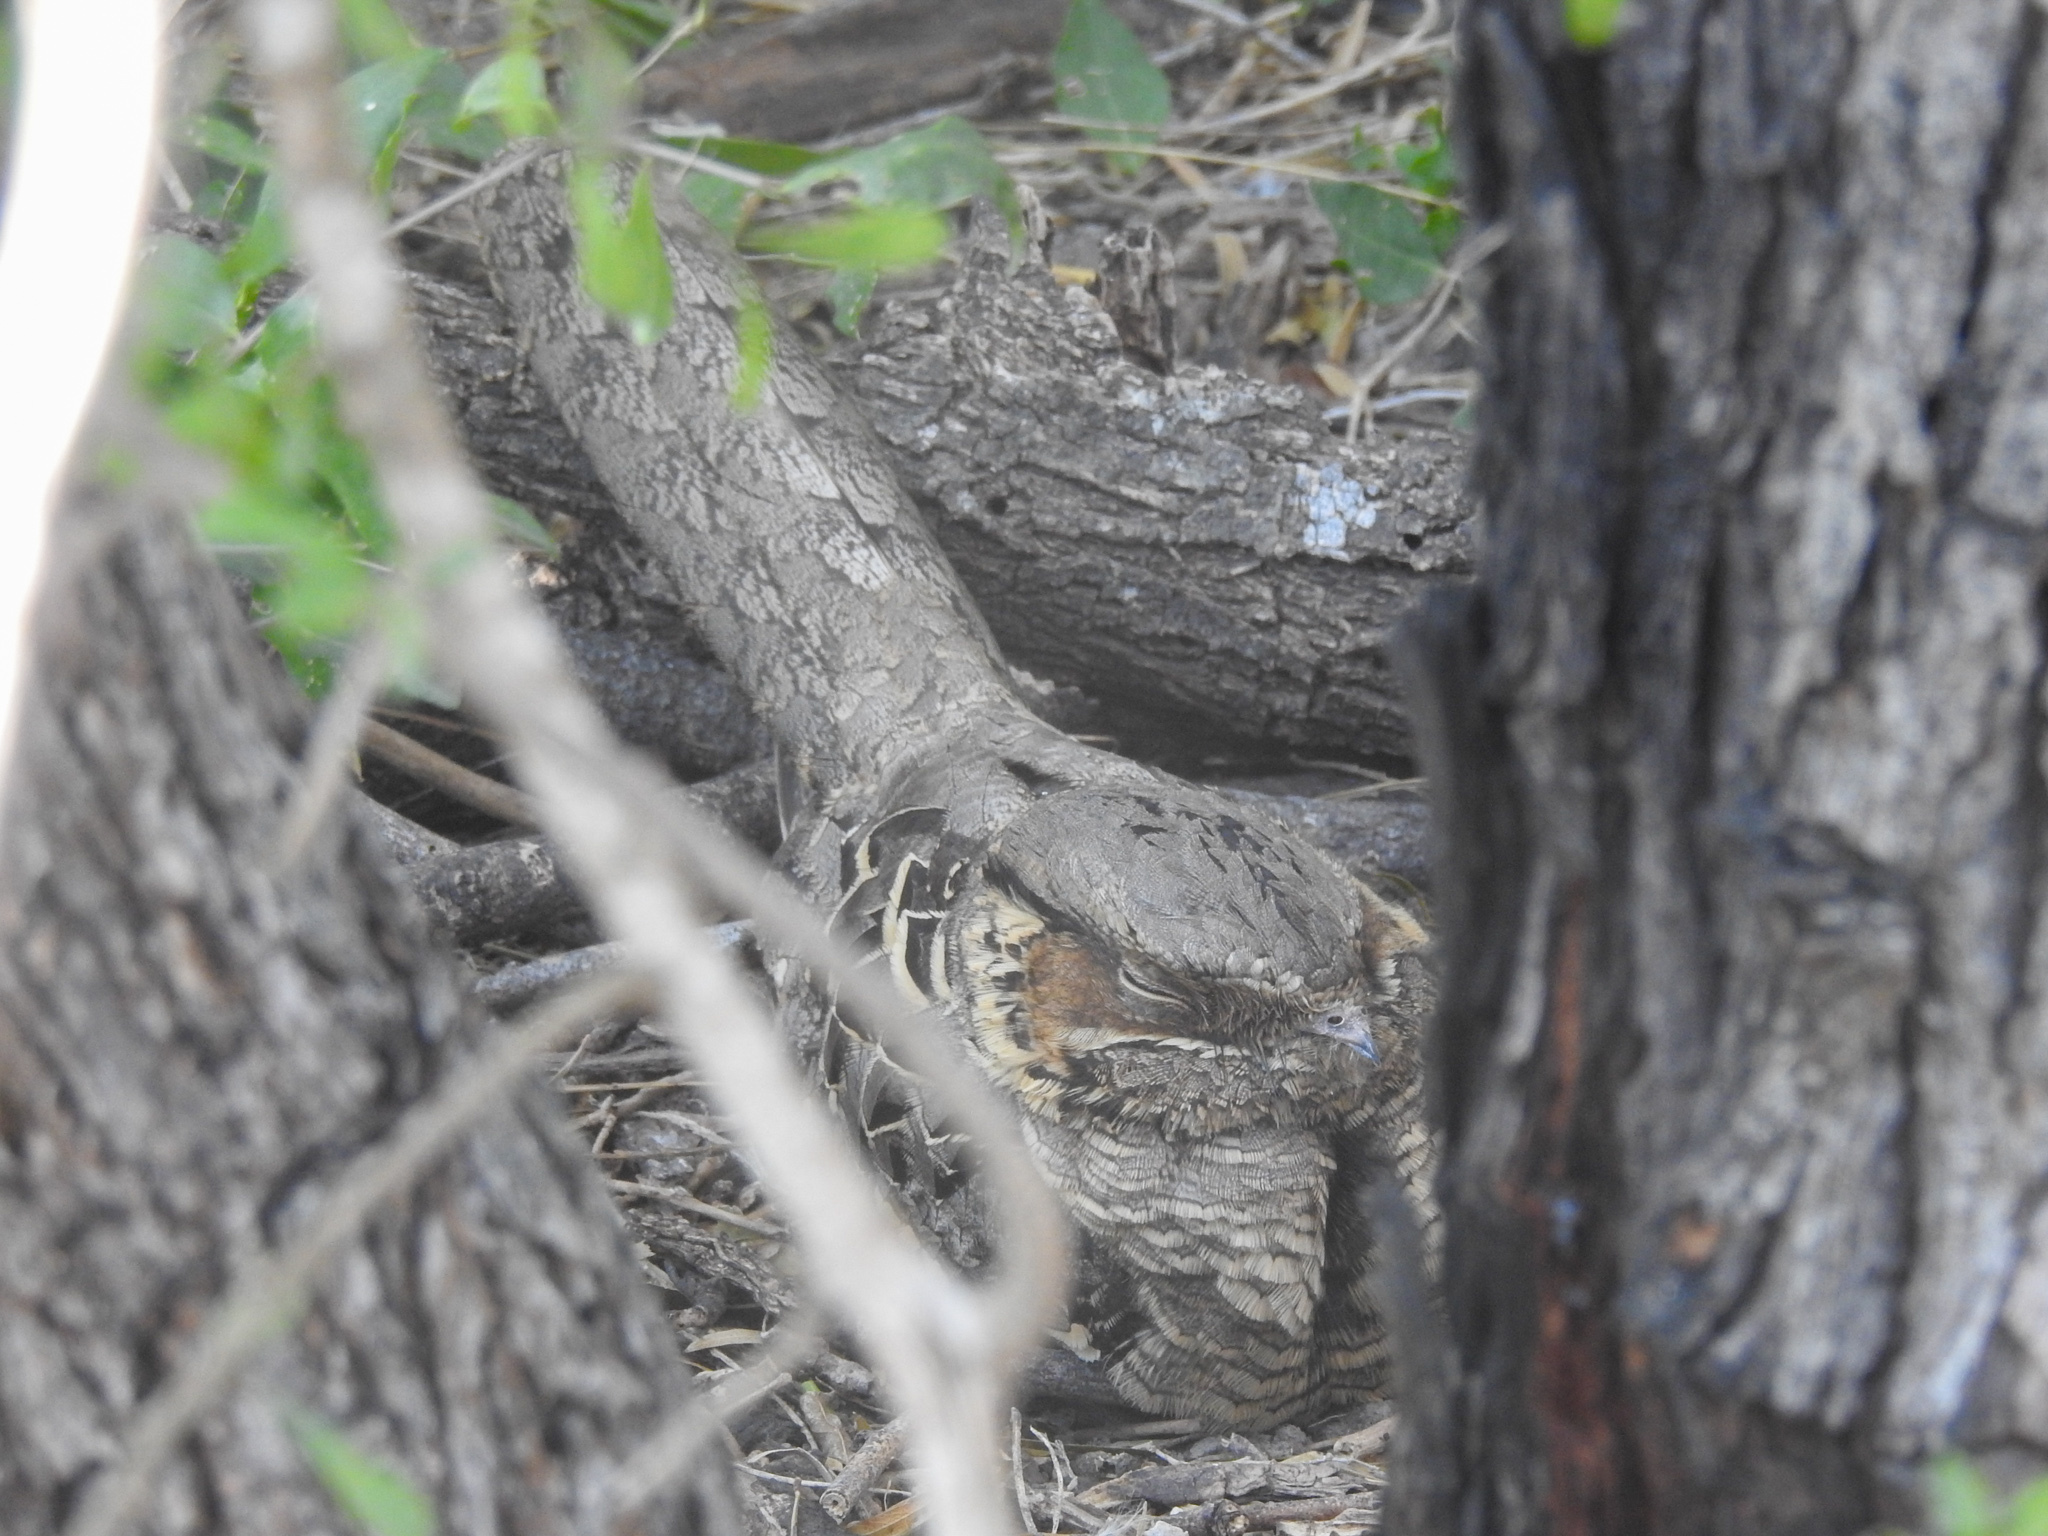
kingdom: Animalia
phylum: Chordata
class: Aves
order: Caprimulgiformes
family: Caprimulgidae
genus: Nyctidromus
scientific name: Nyctidromus albicollis
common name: Pauraque
